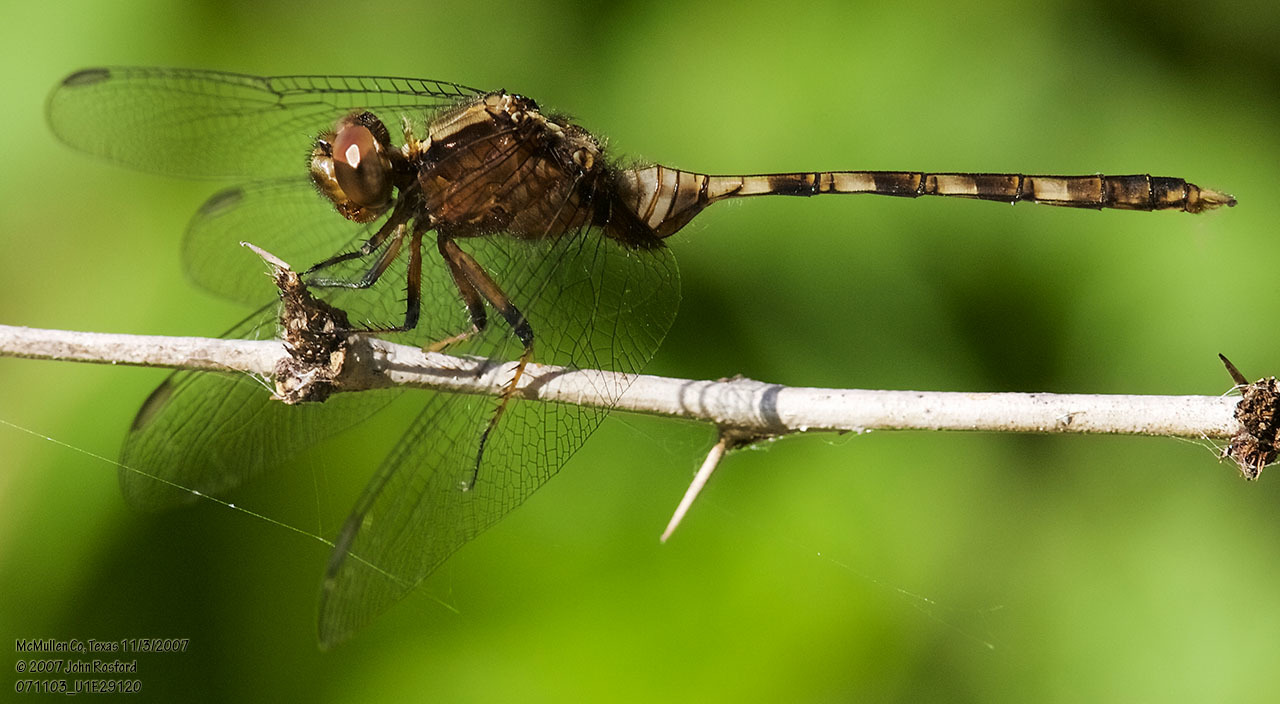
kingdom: Animalia
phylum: Arthropoda
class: Insecta
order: Odonata
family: Libellulidae
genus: Erythemis
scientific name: Erythemis plebeja
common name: Pin-tailed pondhawk
